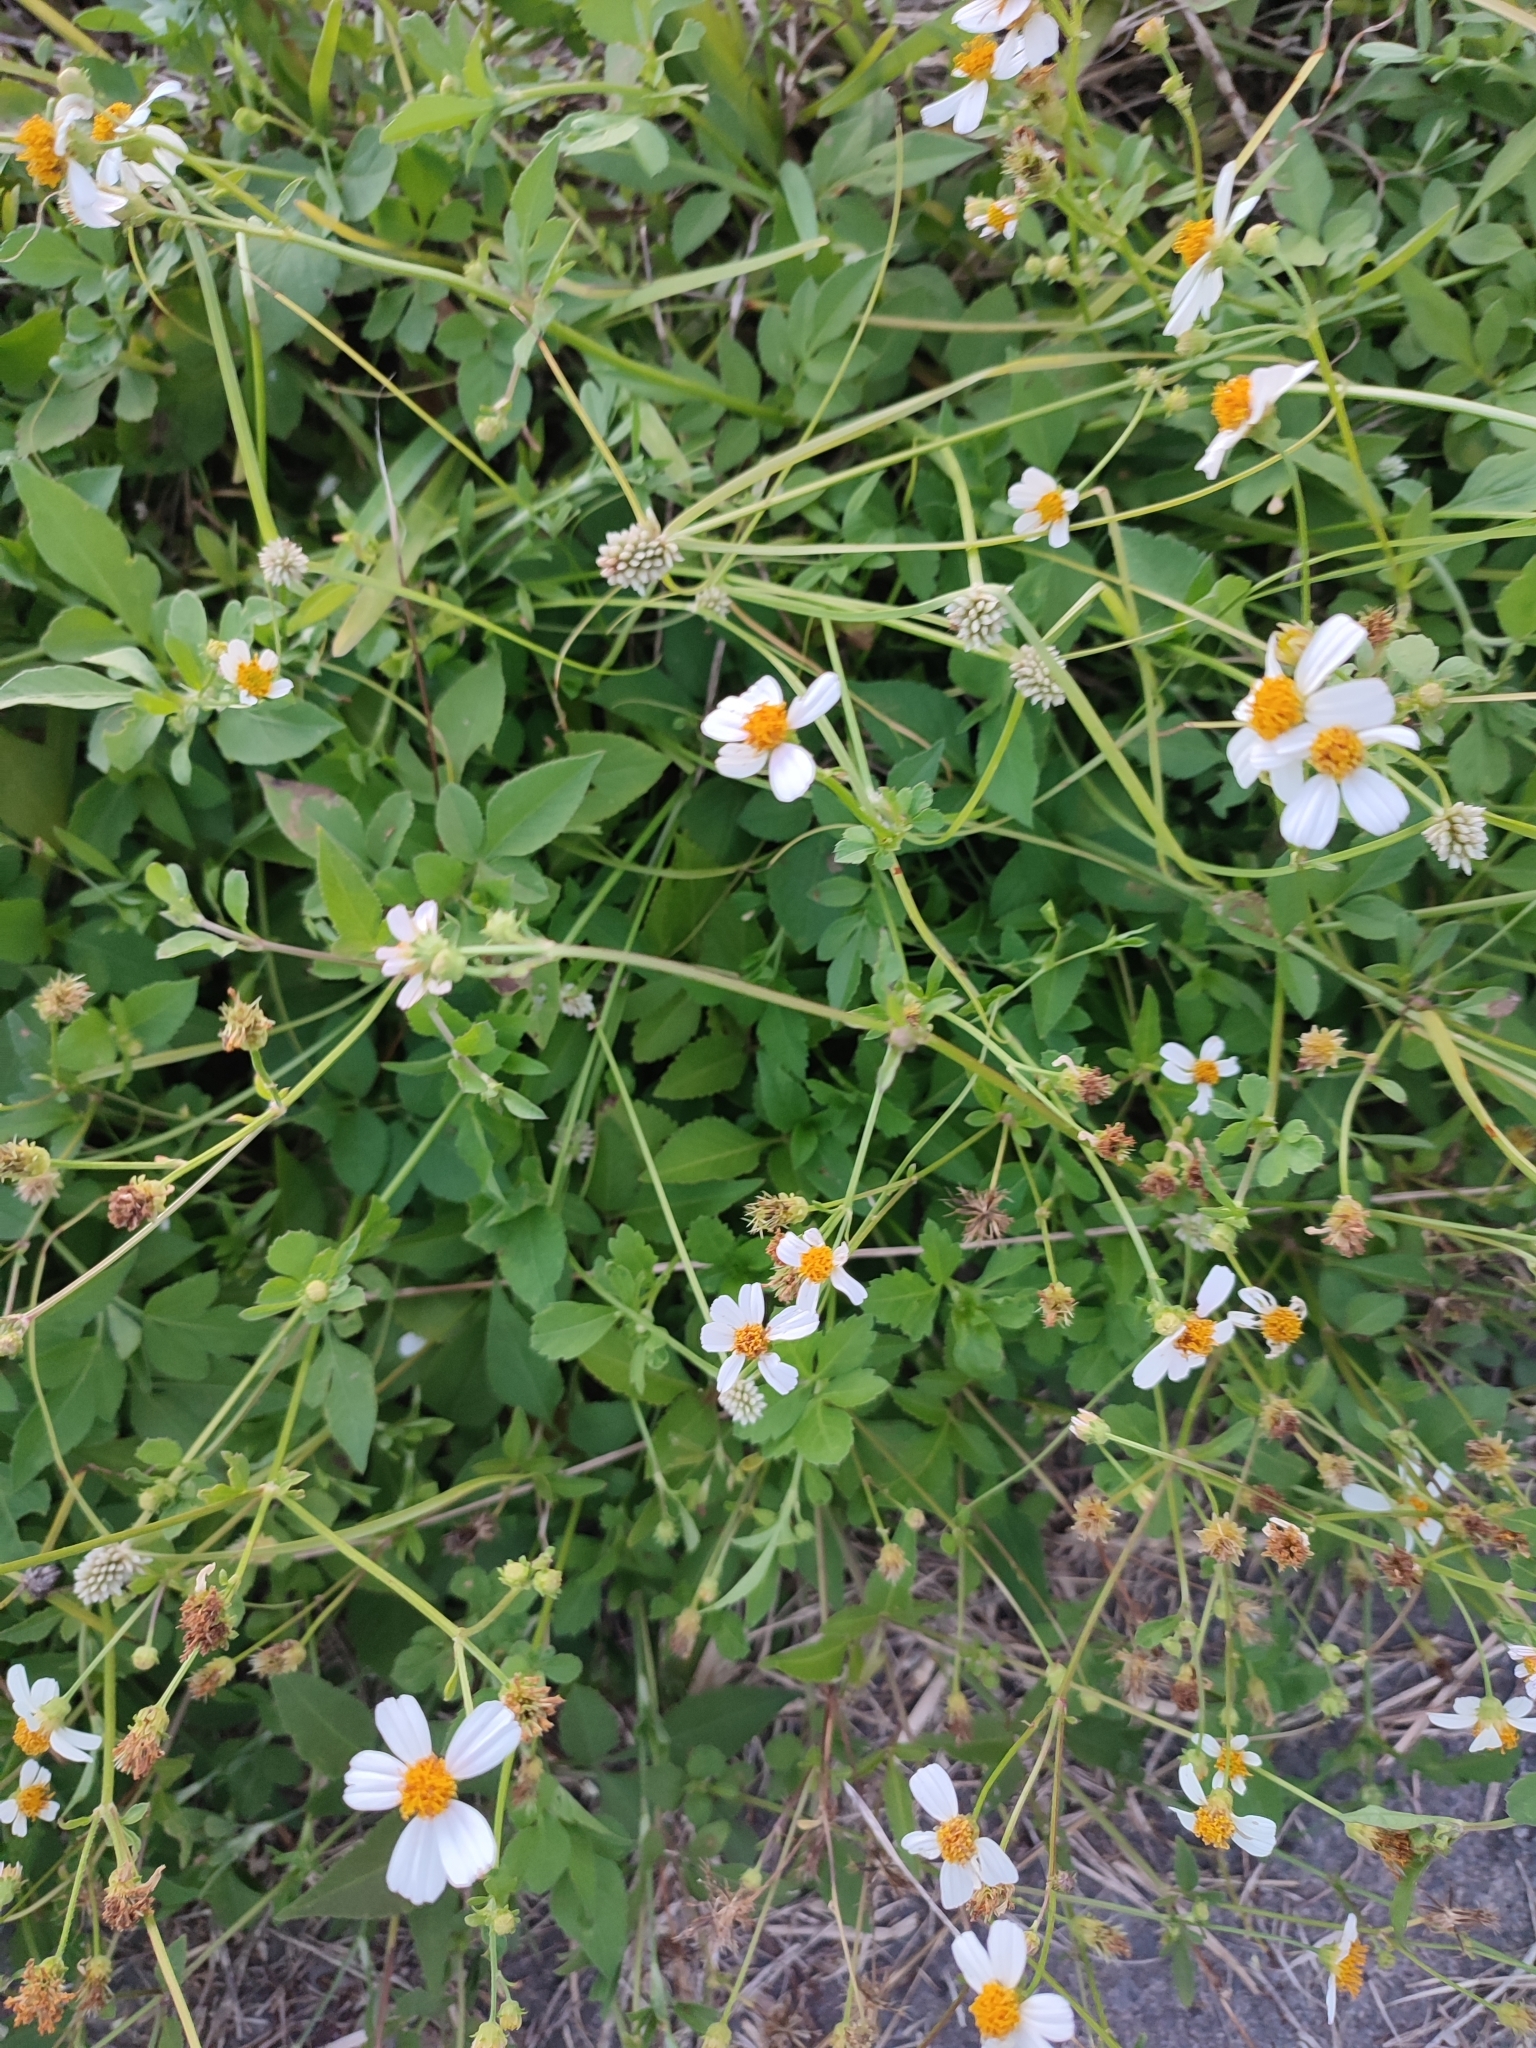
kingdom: Plantae
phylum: Tracheophyta
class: Liliopsida
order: Poales
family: Cyperaceae
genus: Cyperus
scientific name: Cyperus mindorensis
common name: Flatsedge
